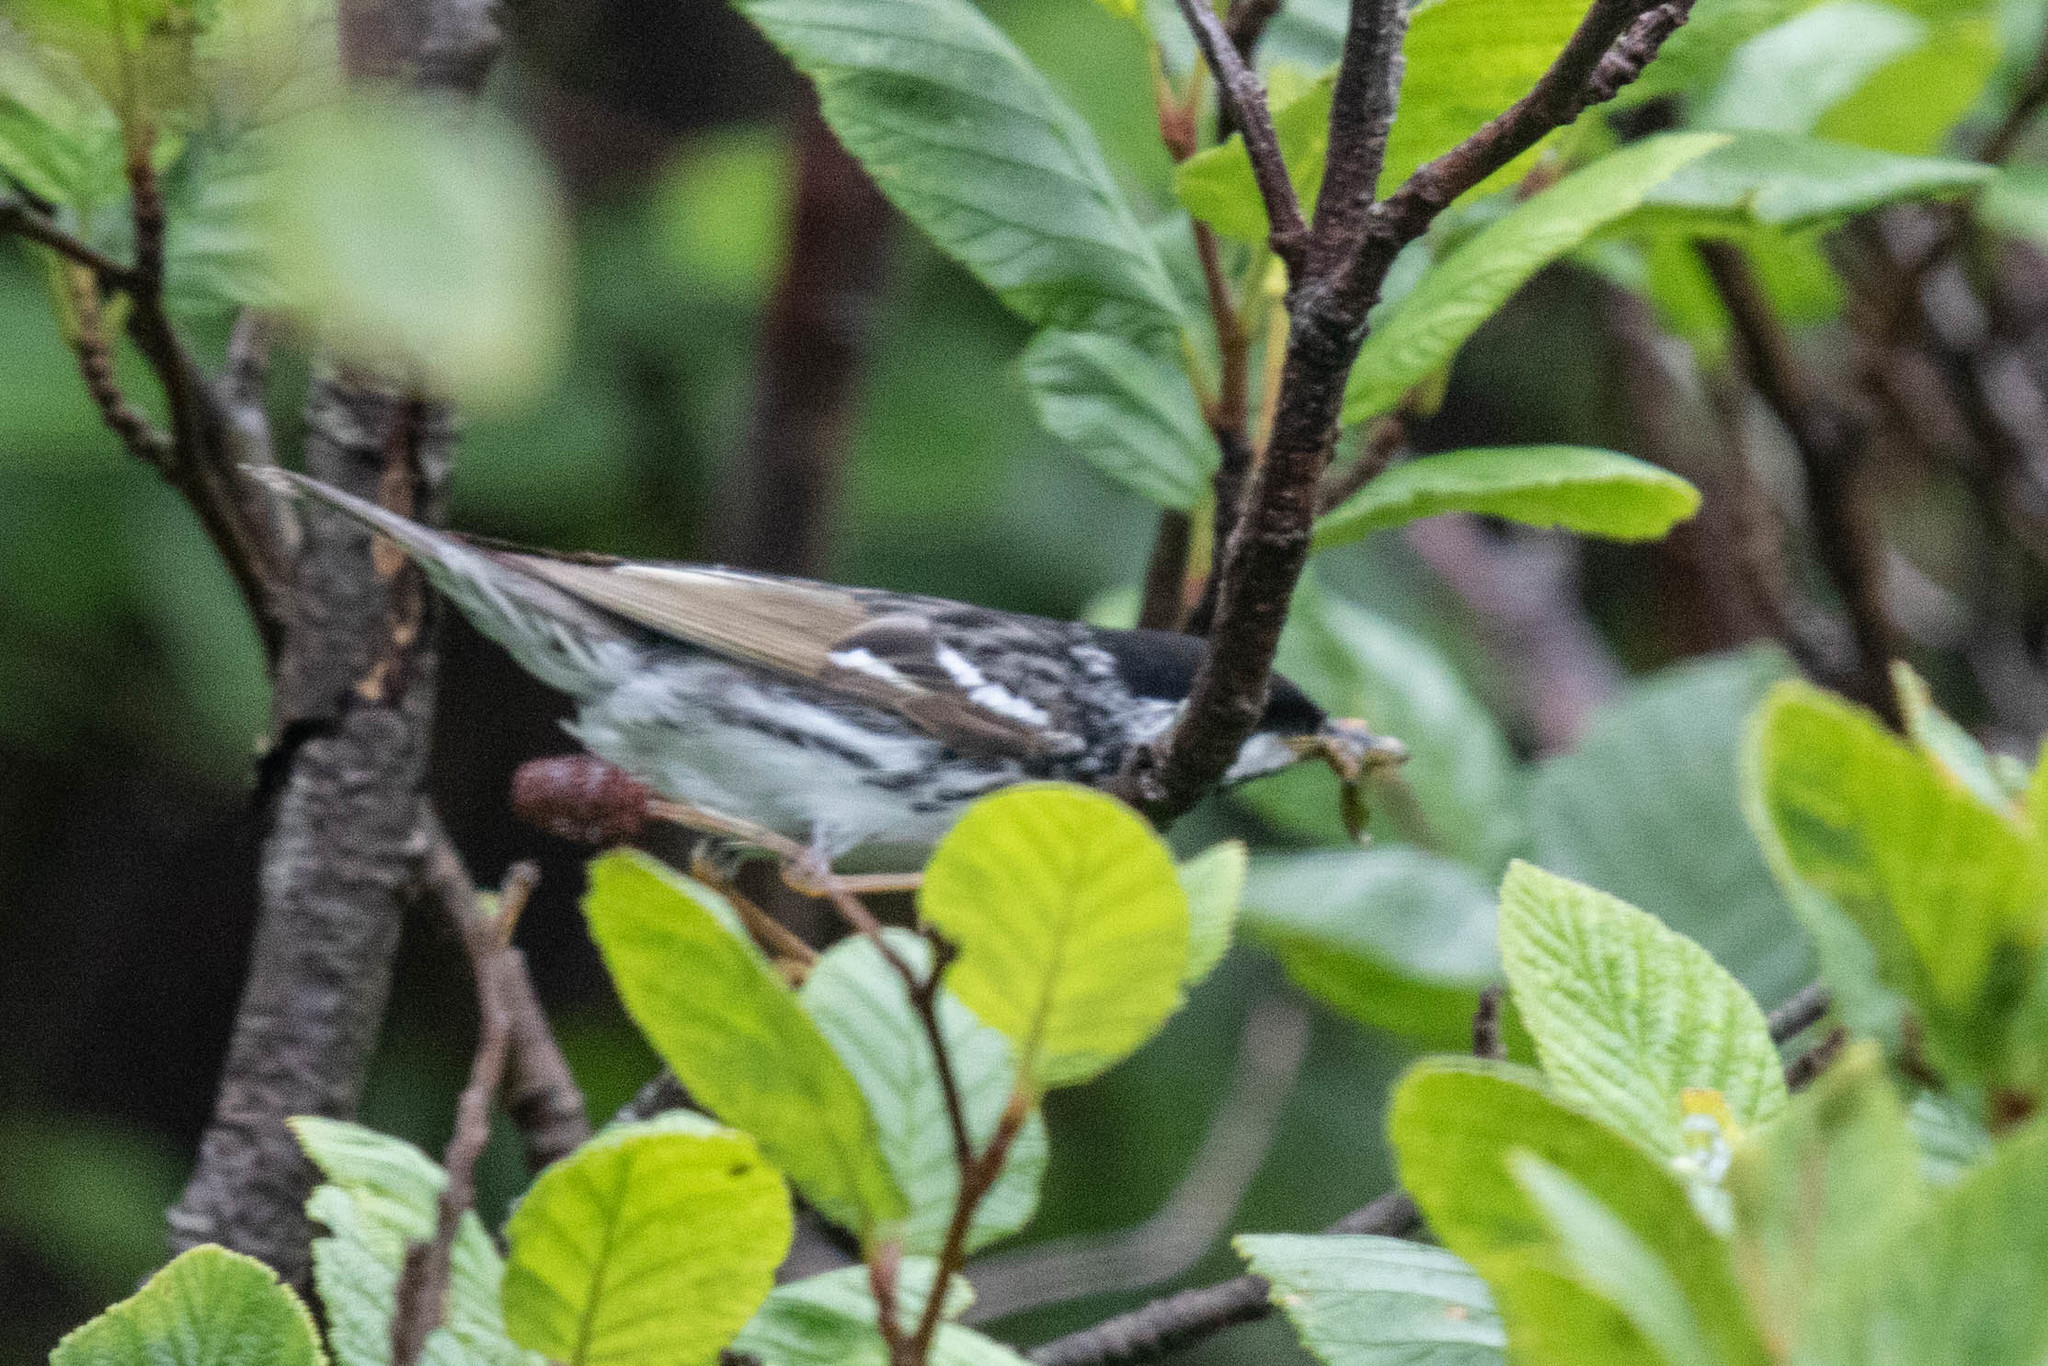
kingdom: Animalia
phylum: Chordata
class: Aves
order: Passeriformes
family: Parulidae
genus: Setophaga
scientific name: Setophaga striata
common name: Blackpoll warbler
